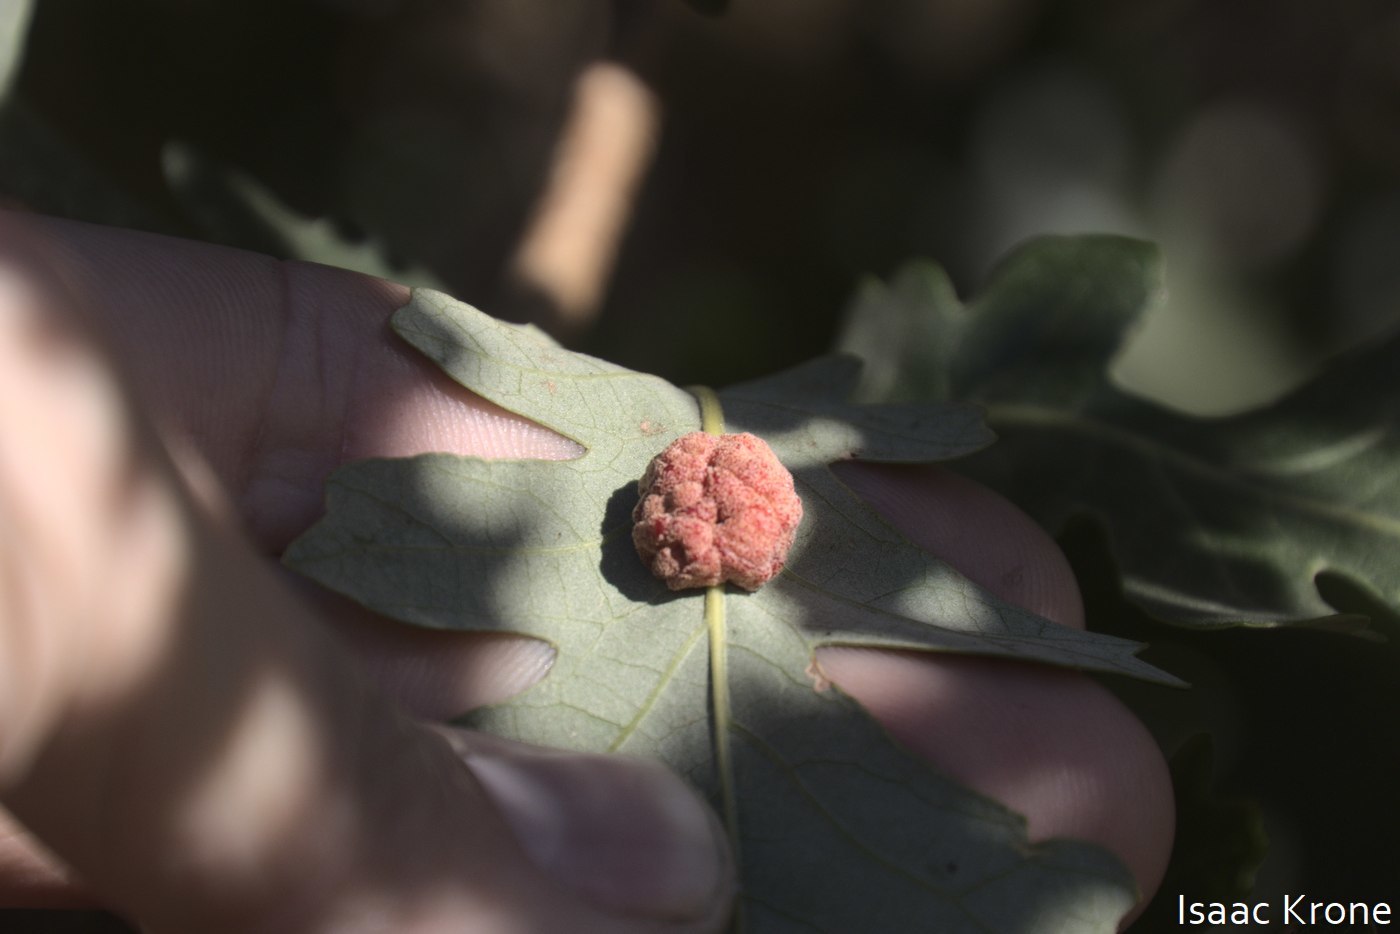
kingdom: Animalia
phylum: Arthropoda
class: Insecta
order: Hymenoptera
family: Cynipidae
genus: Andricus
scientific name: Andricus
